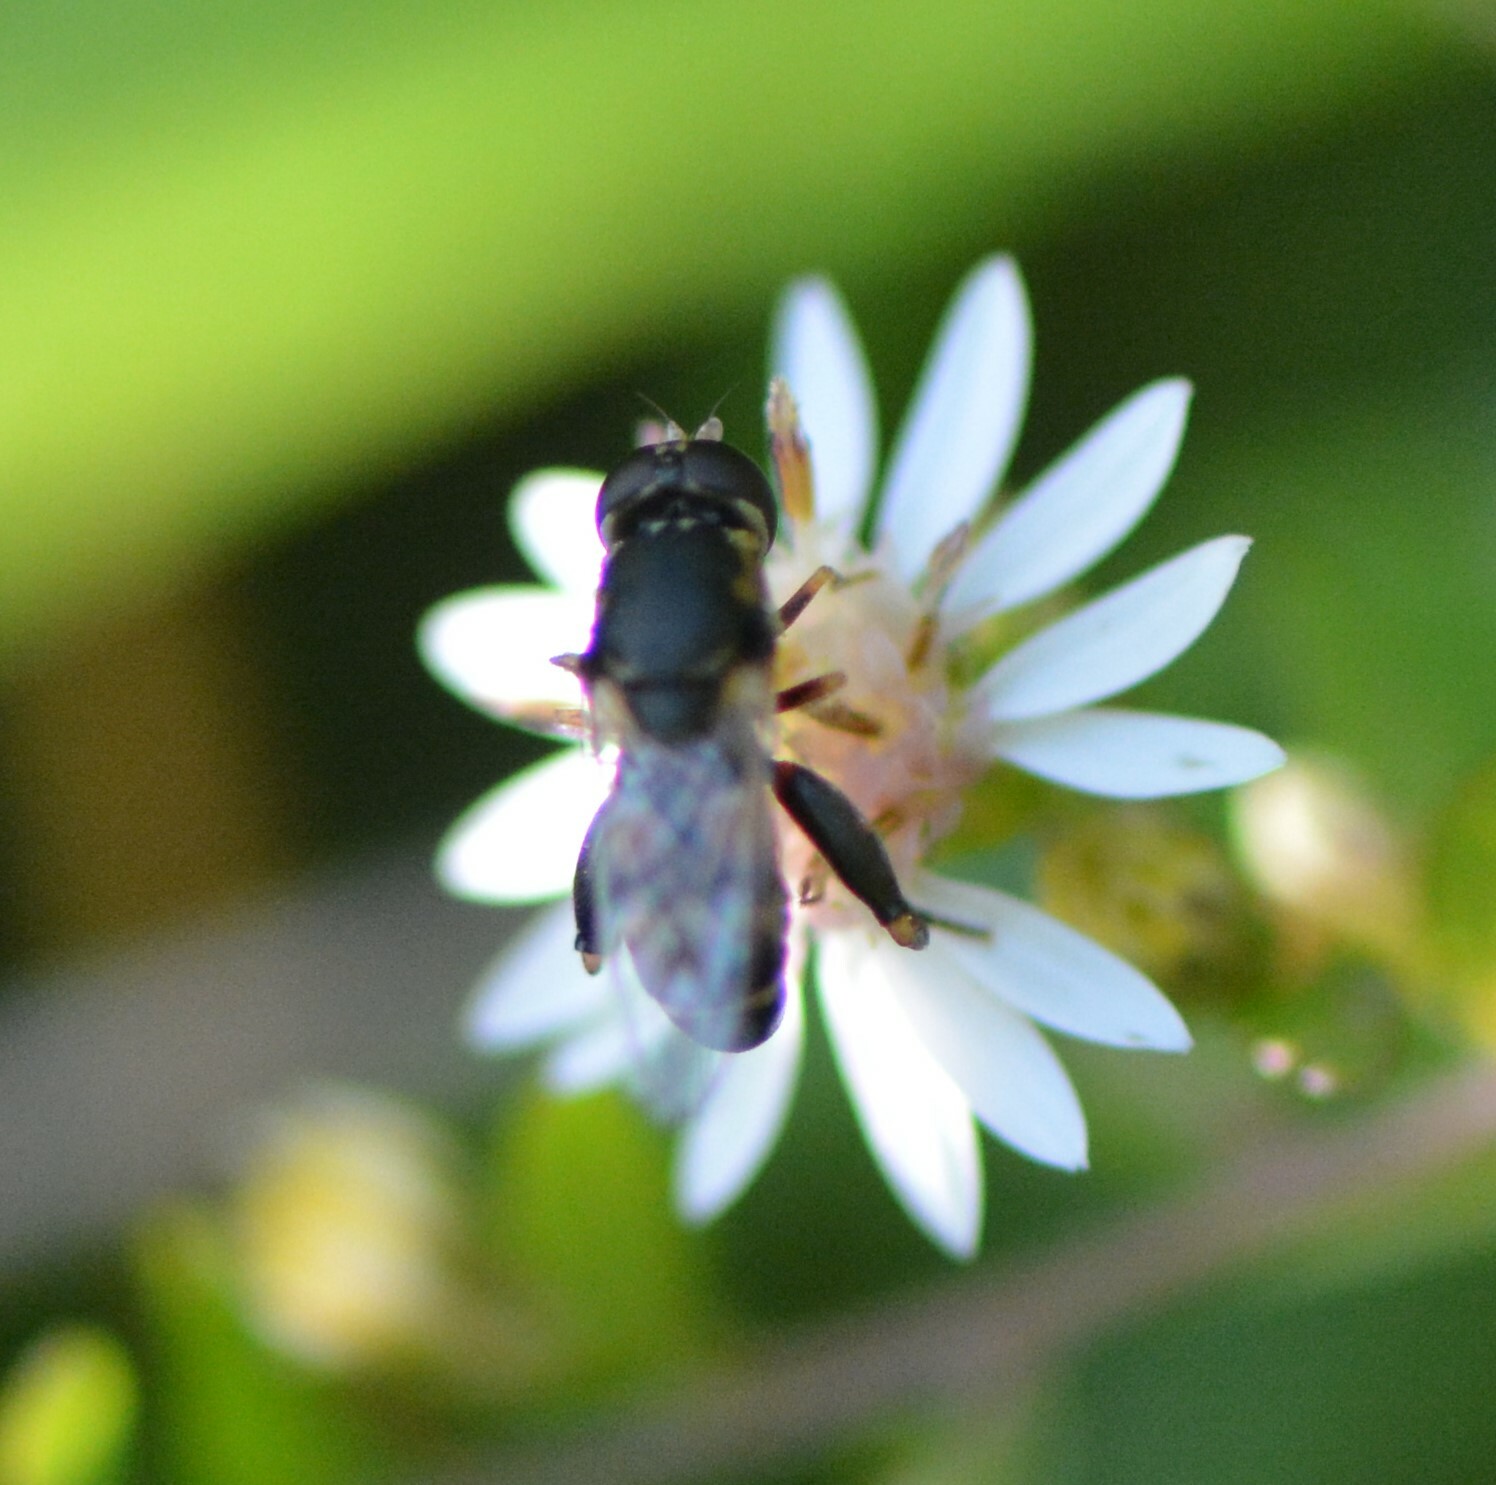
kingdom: Animalia
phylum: Arthropoda
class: Insecta
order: Diptera
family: Syrphidae
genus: Syritta
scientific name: Syritta pipiens
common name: Hover fly
